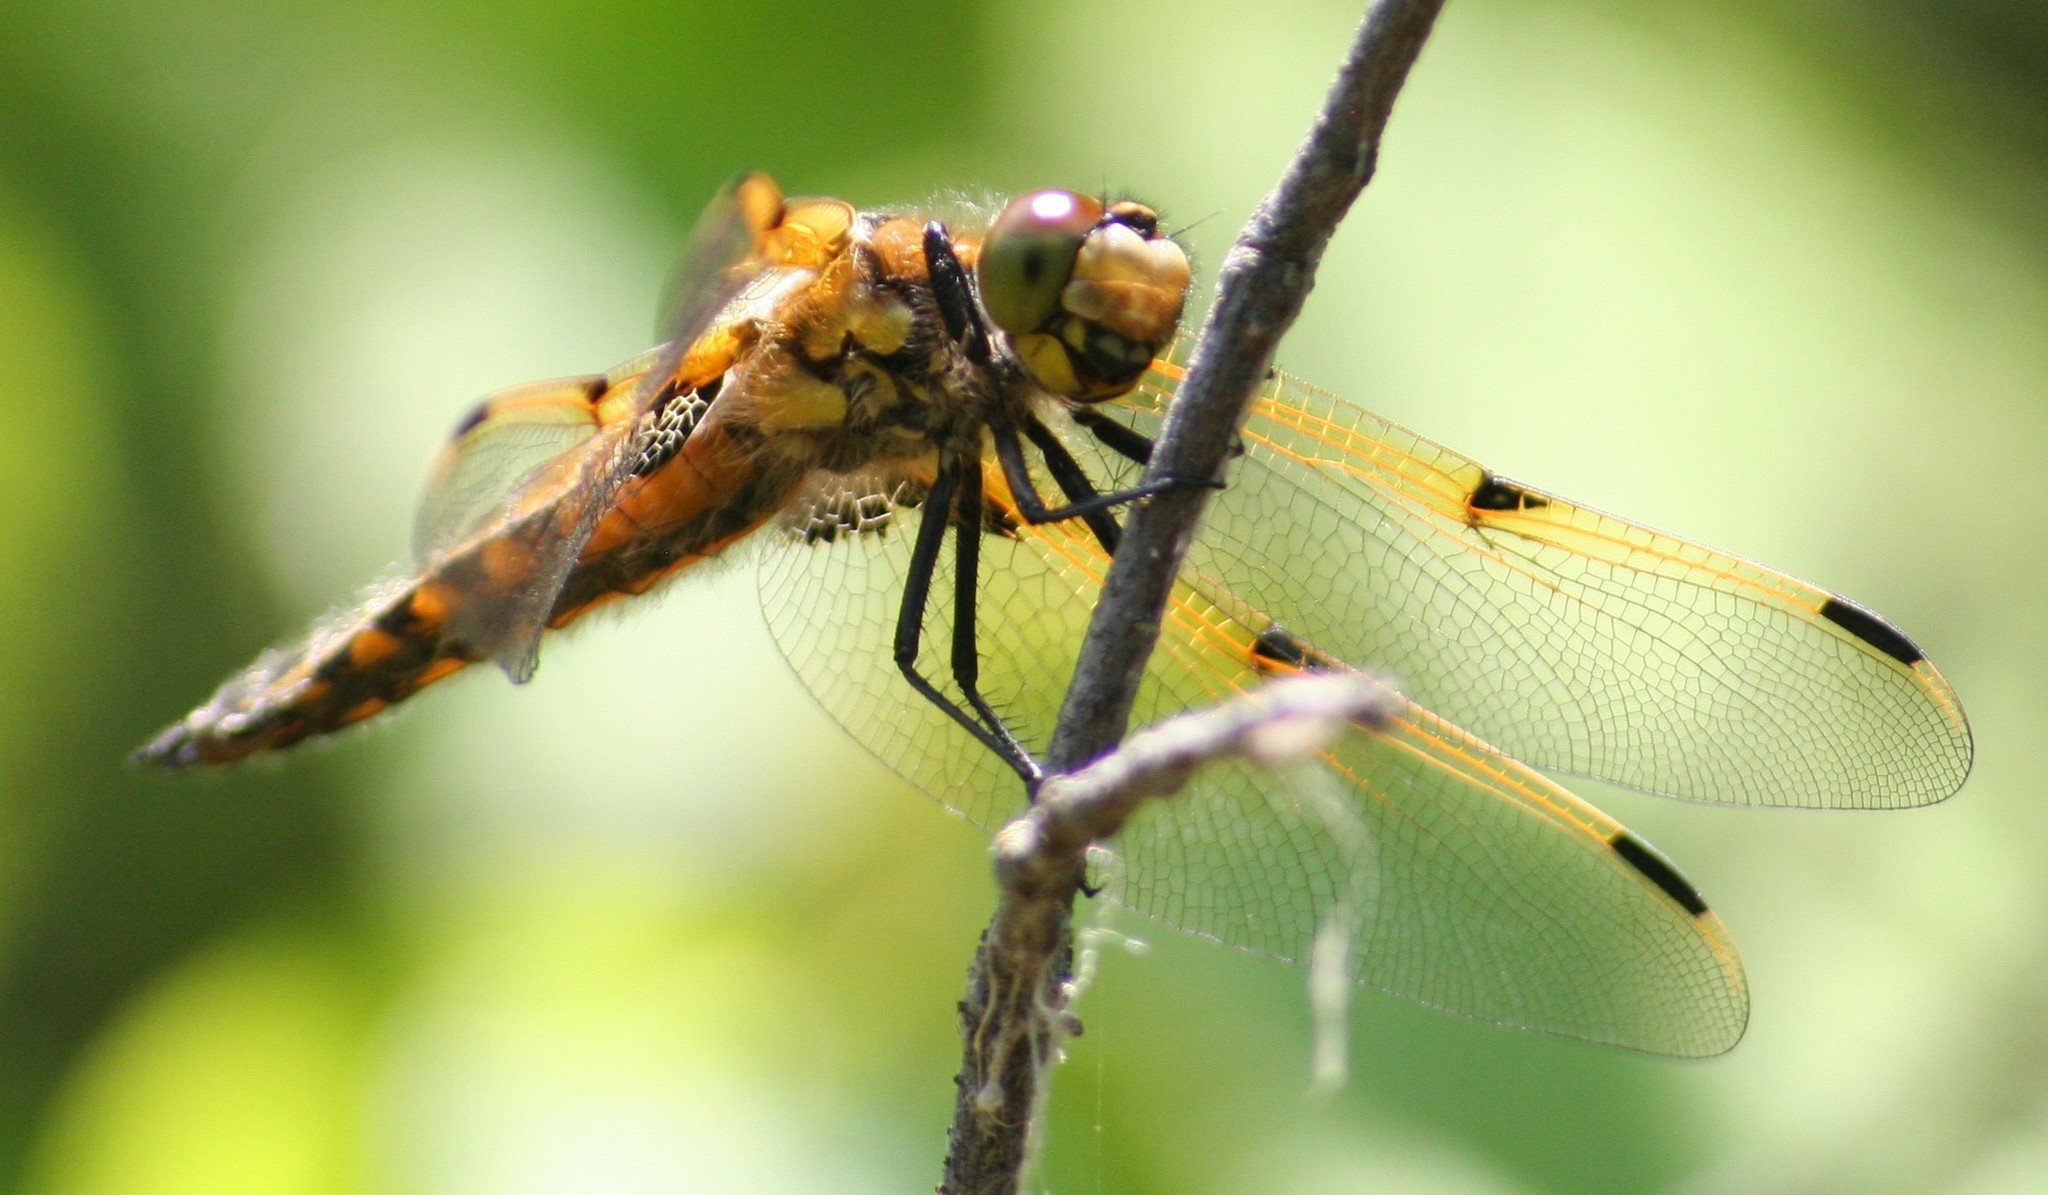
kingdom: Animalia
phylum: Arthropoda
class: Insecta
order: Odonata
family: Libellulidae
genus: Libellula
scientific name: Libellula quadrimaculata
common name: Four-spotted chaser
